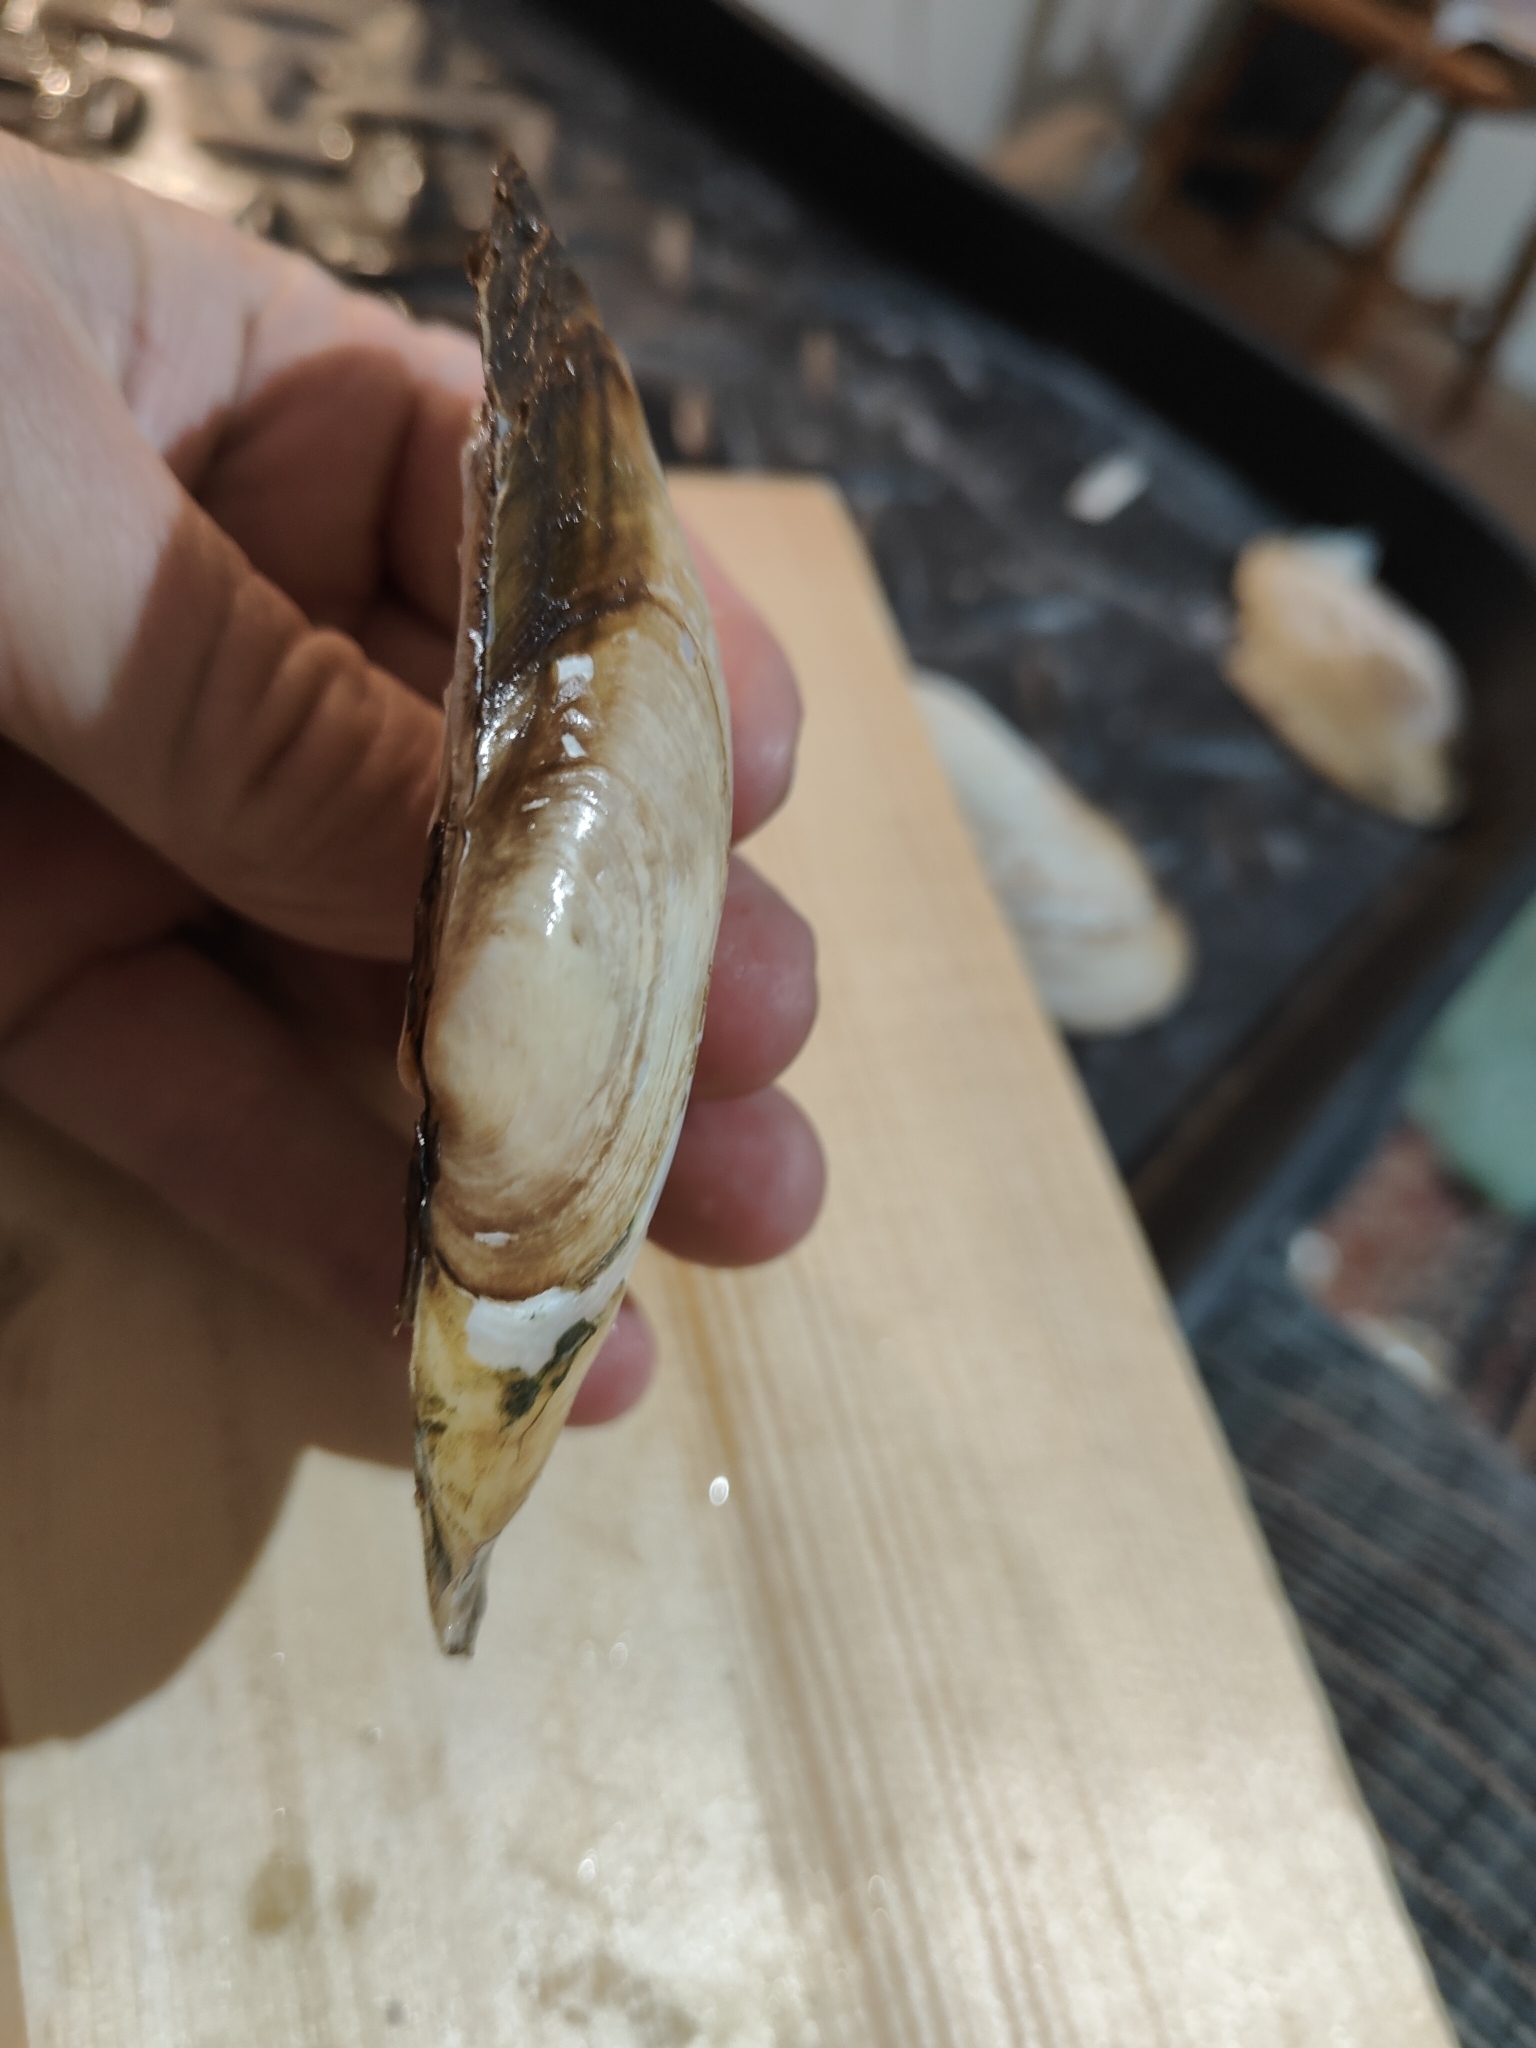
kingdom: Animalia
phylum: Mollusca
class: Bivalvia
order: Unionida
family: Unionidae
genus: Potamilus
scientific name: Potamilus fragilis
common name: Fragile papershell
